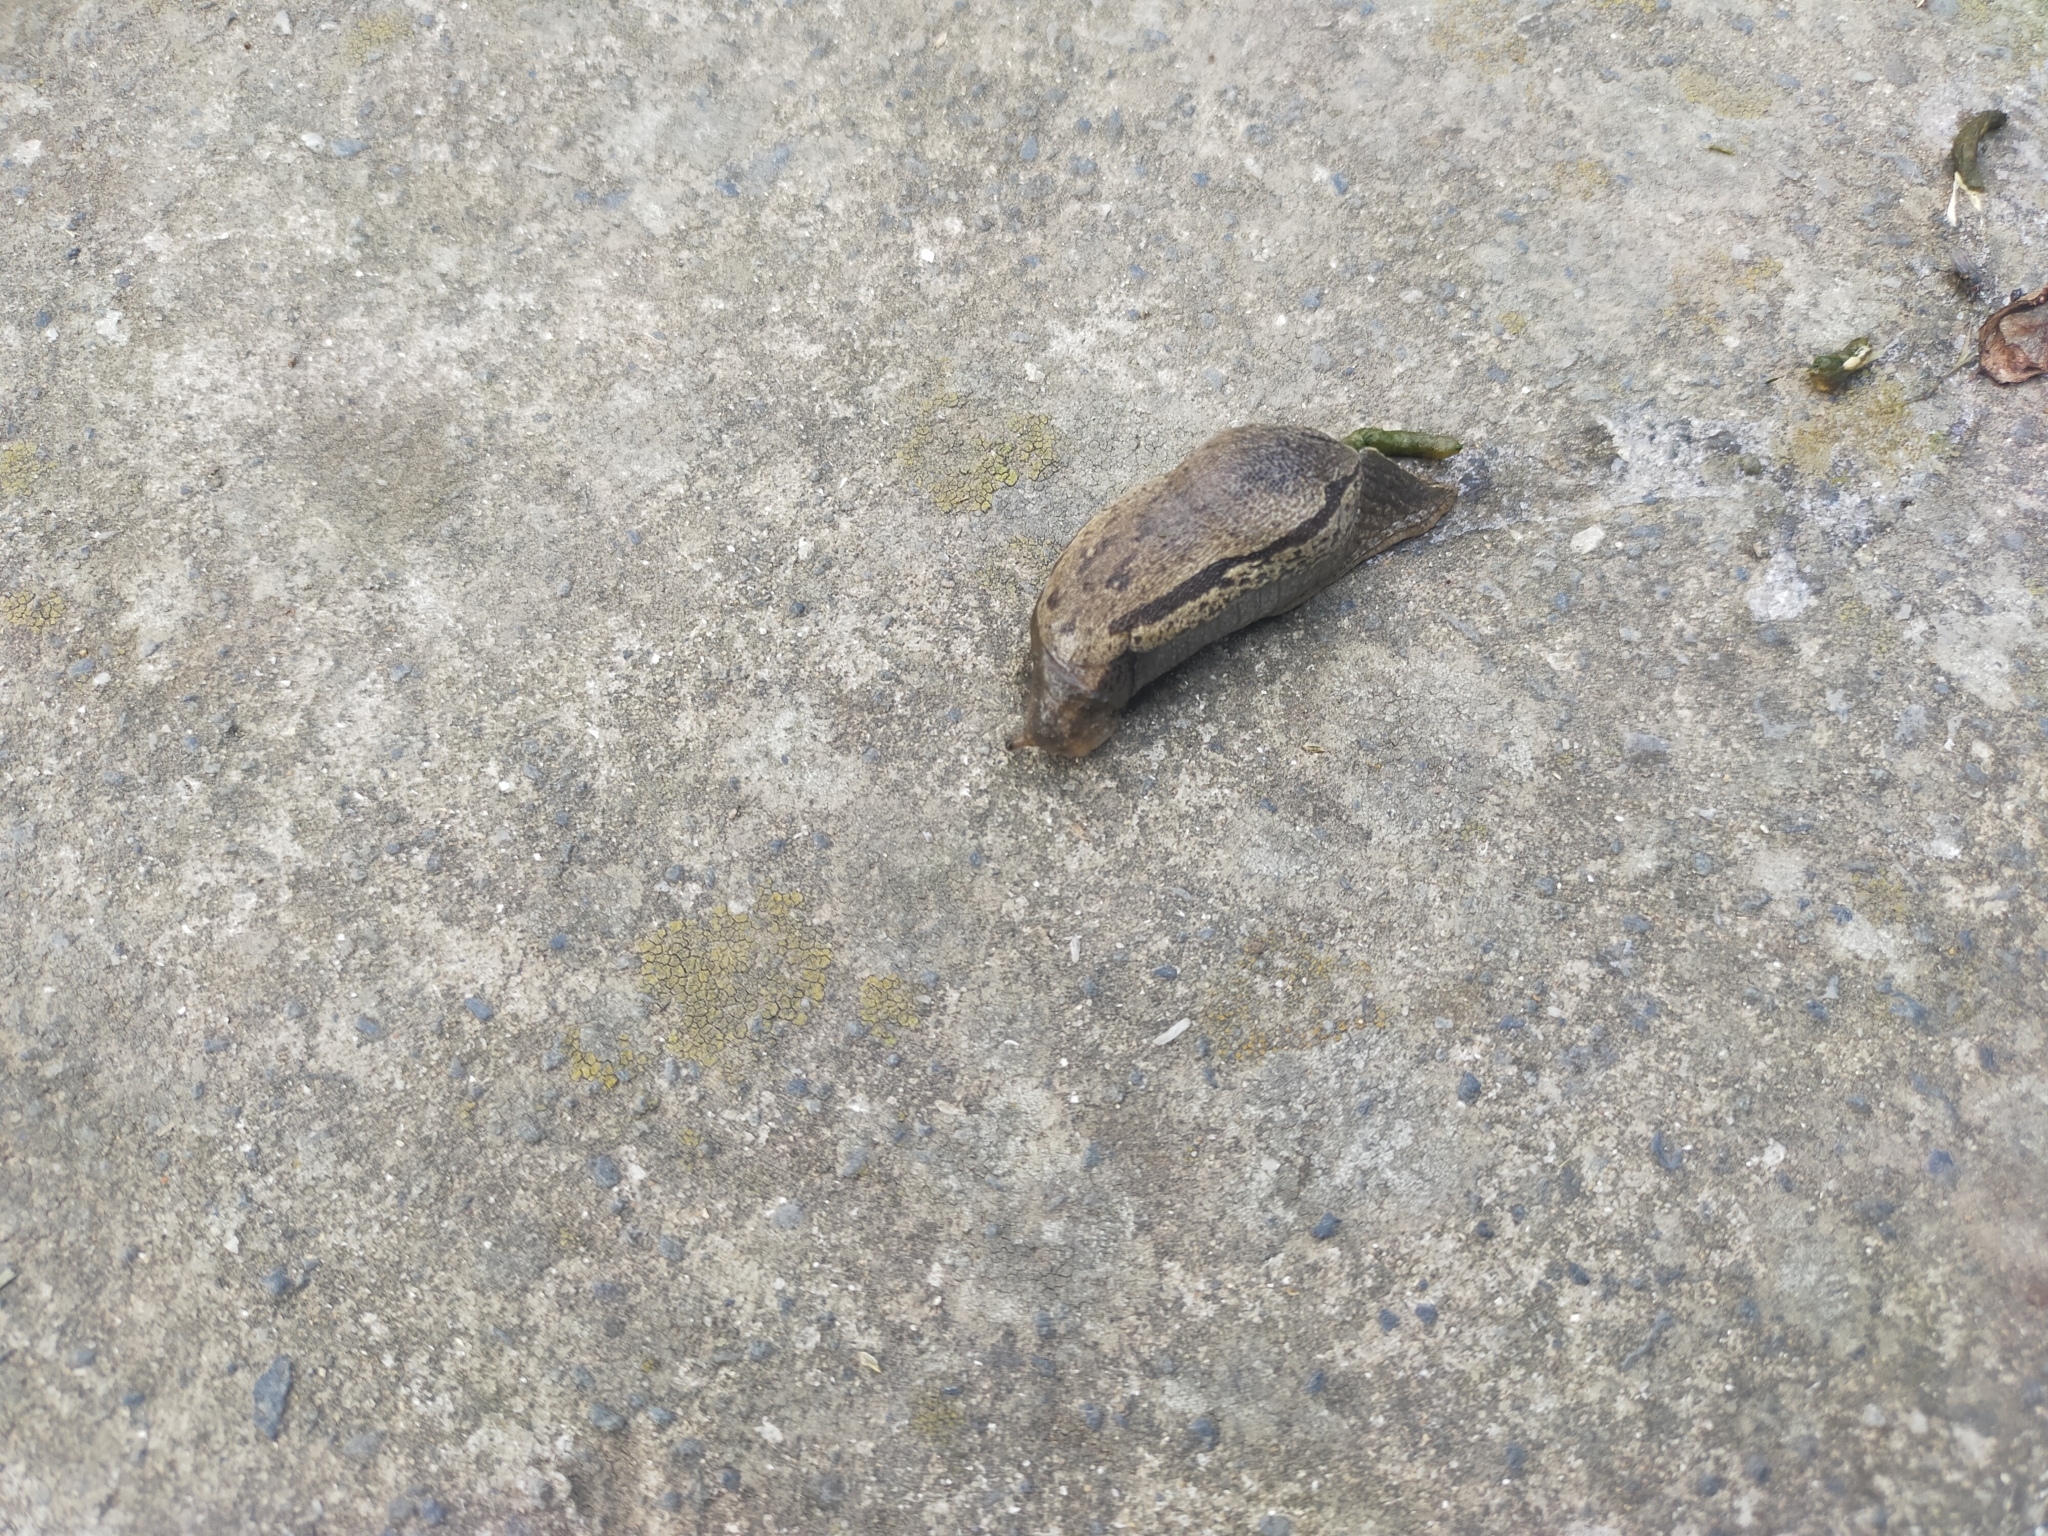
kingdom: Animalia
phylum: Mollusca
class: Gastropoda
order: Stylommatophora
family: Parmacellidae
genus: Drusia
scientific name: Drusia ibera
